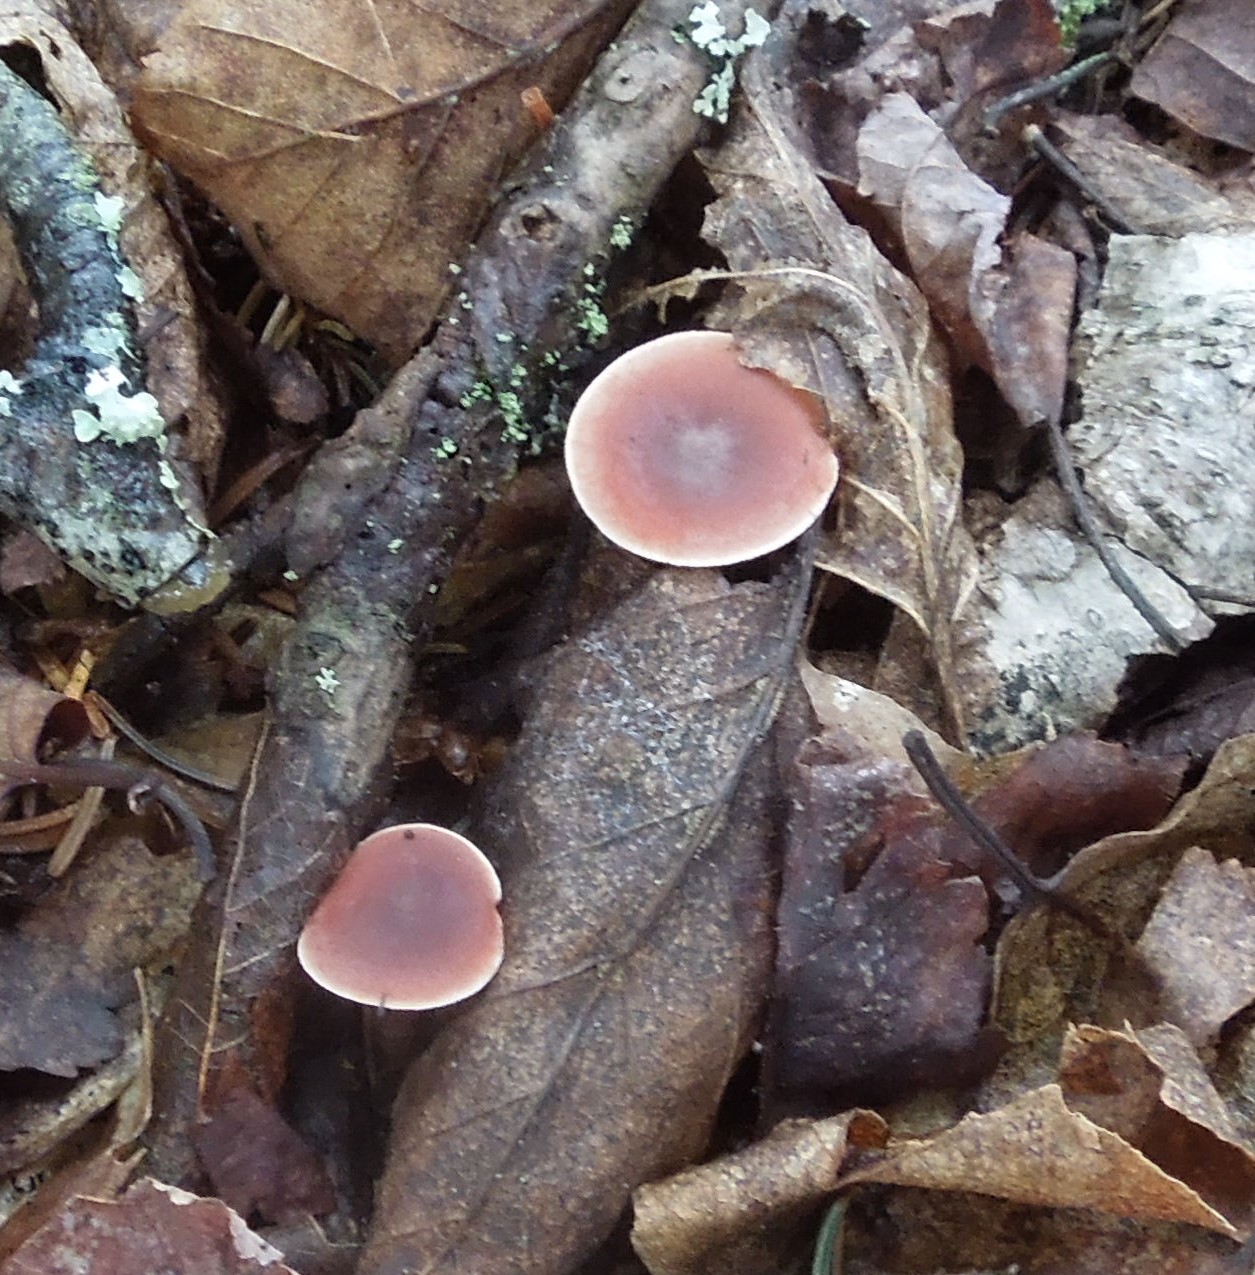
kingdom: Fungi
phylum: Basidiomycota
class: Agaricomycetes
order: Russulales
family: Russulaceae
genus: Lactarius
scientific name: Lactarius
